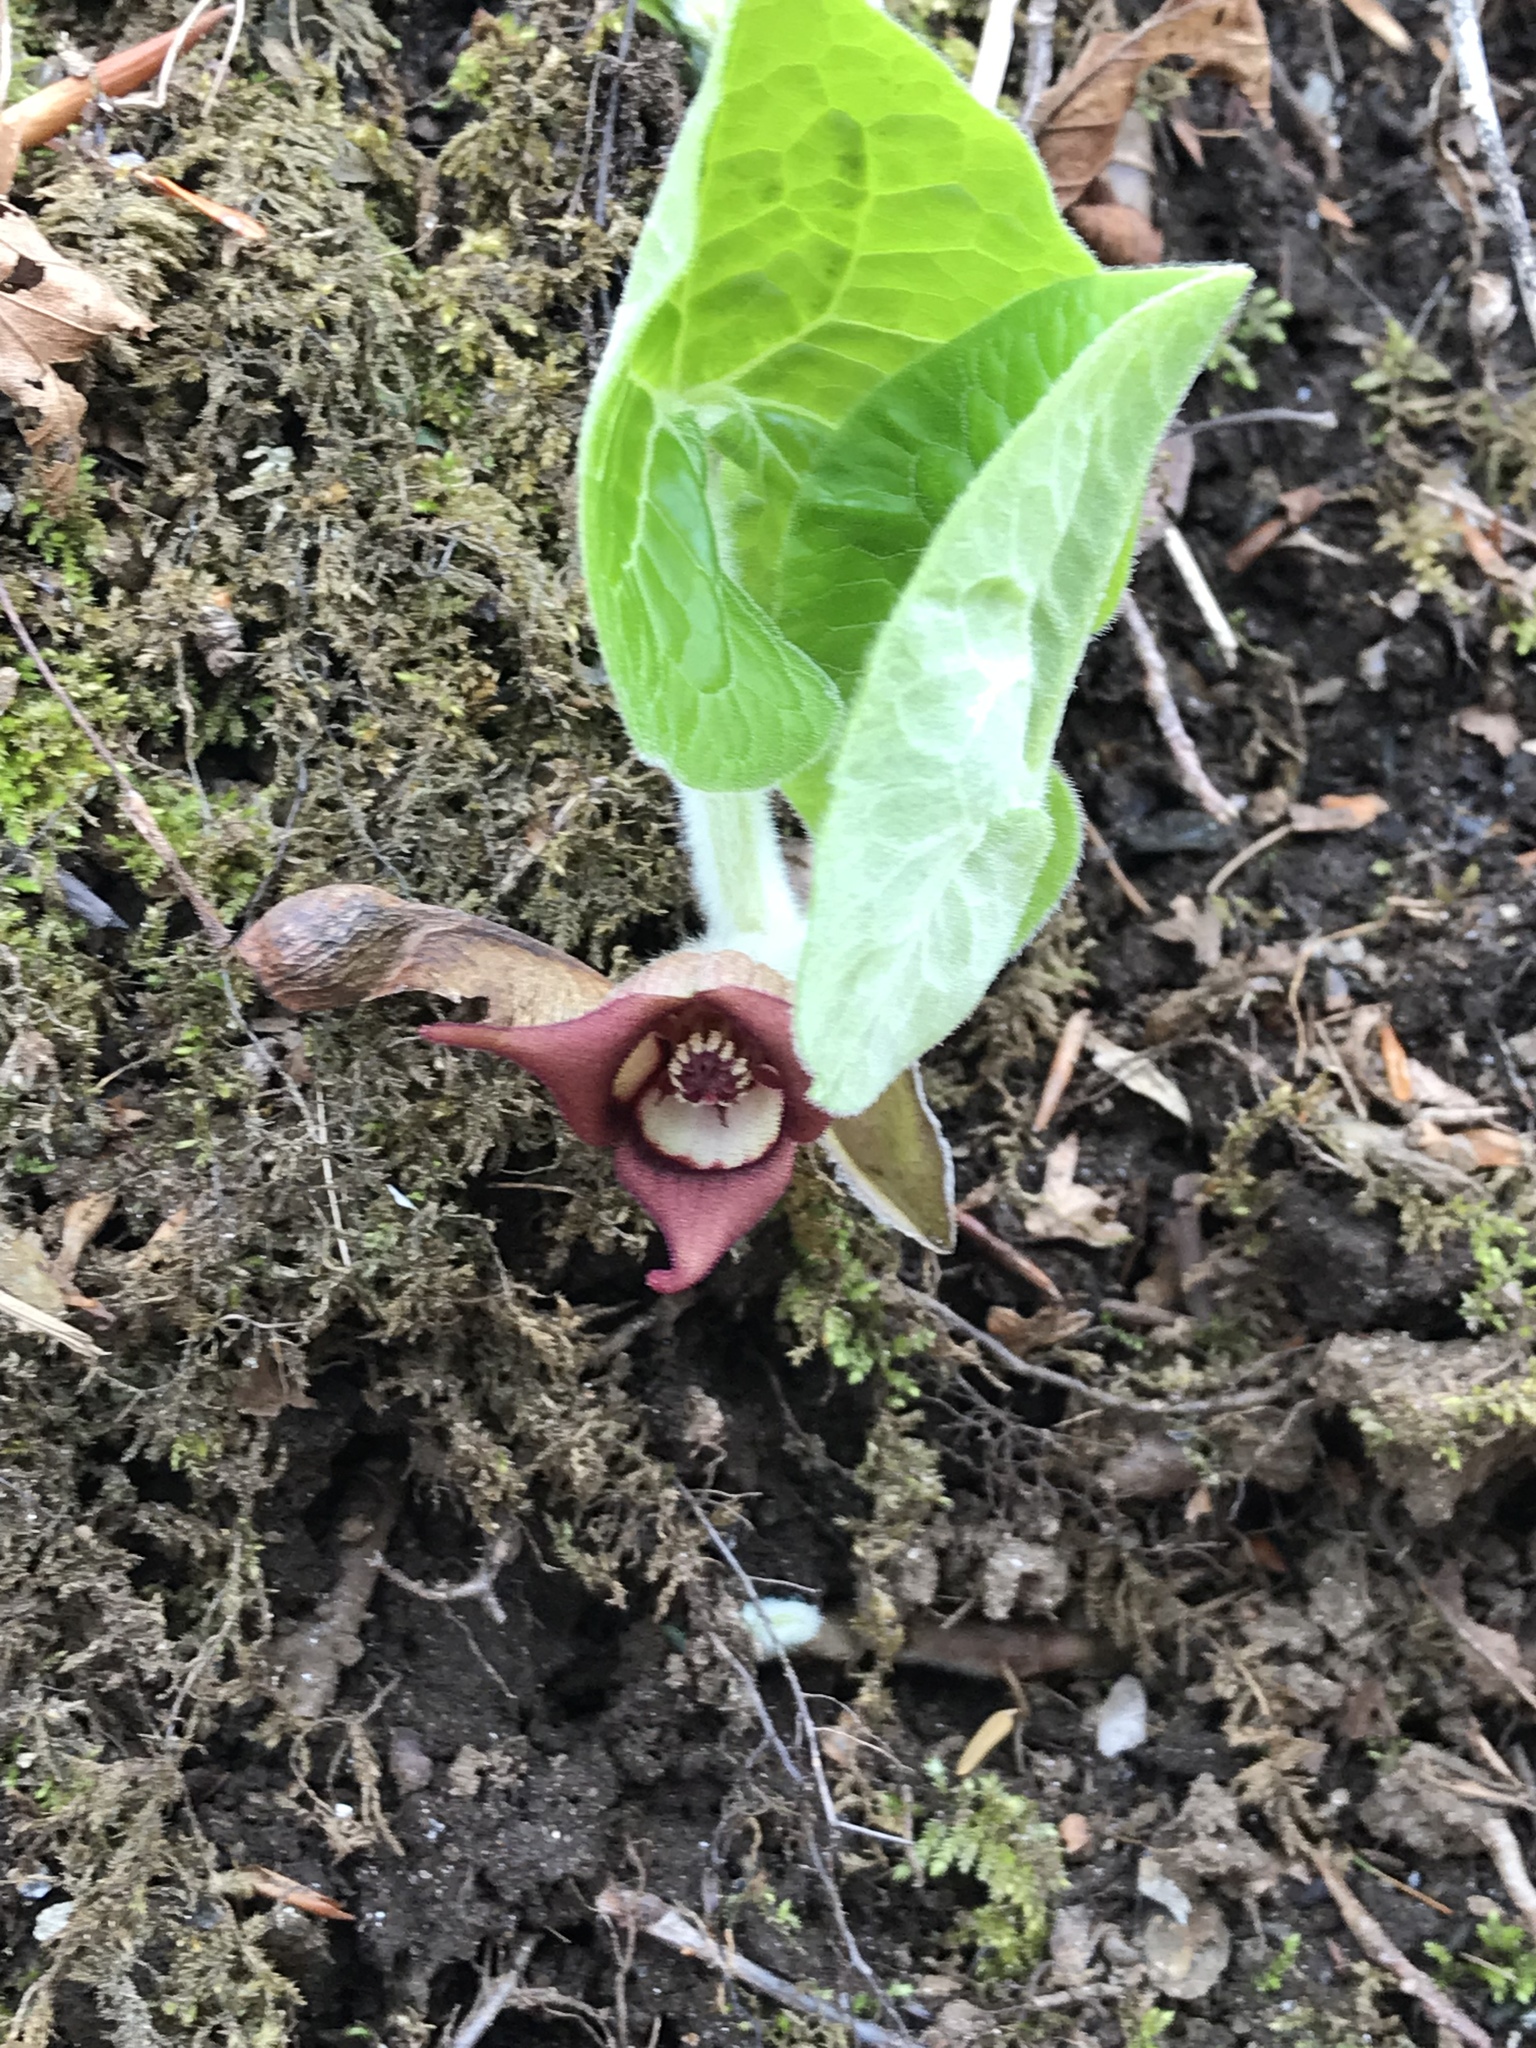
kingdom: Plantae
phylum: Tracheophyta
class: Magnoliopsida
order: Piperales
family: Aristolochiaceae
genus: Asarum
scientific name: Asarum canadense
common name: Wild ginger
